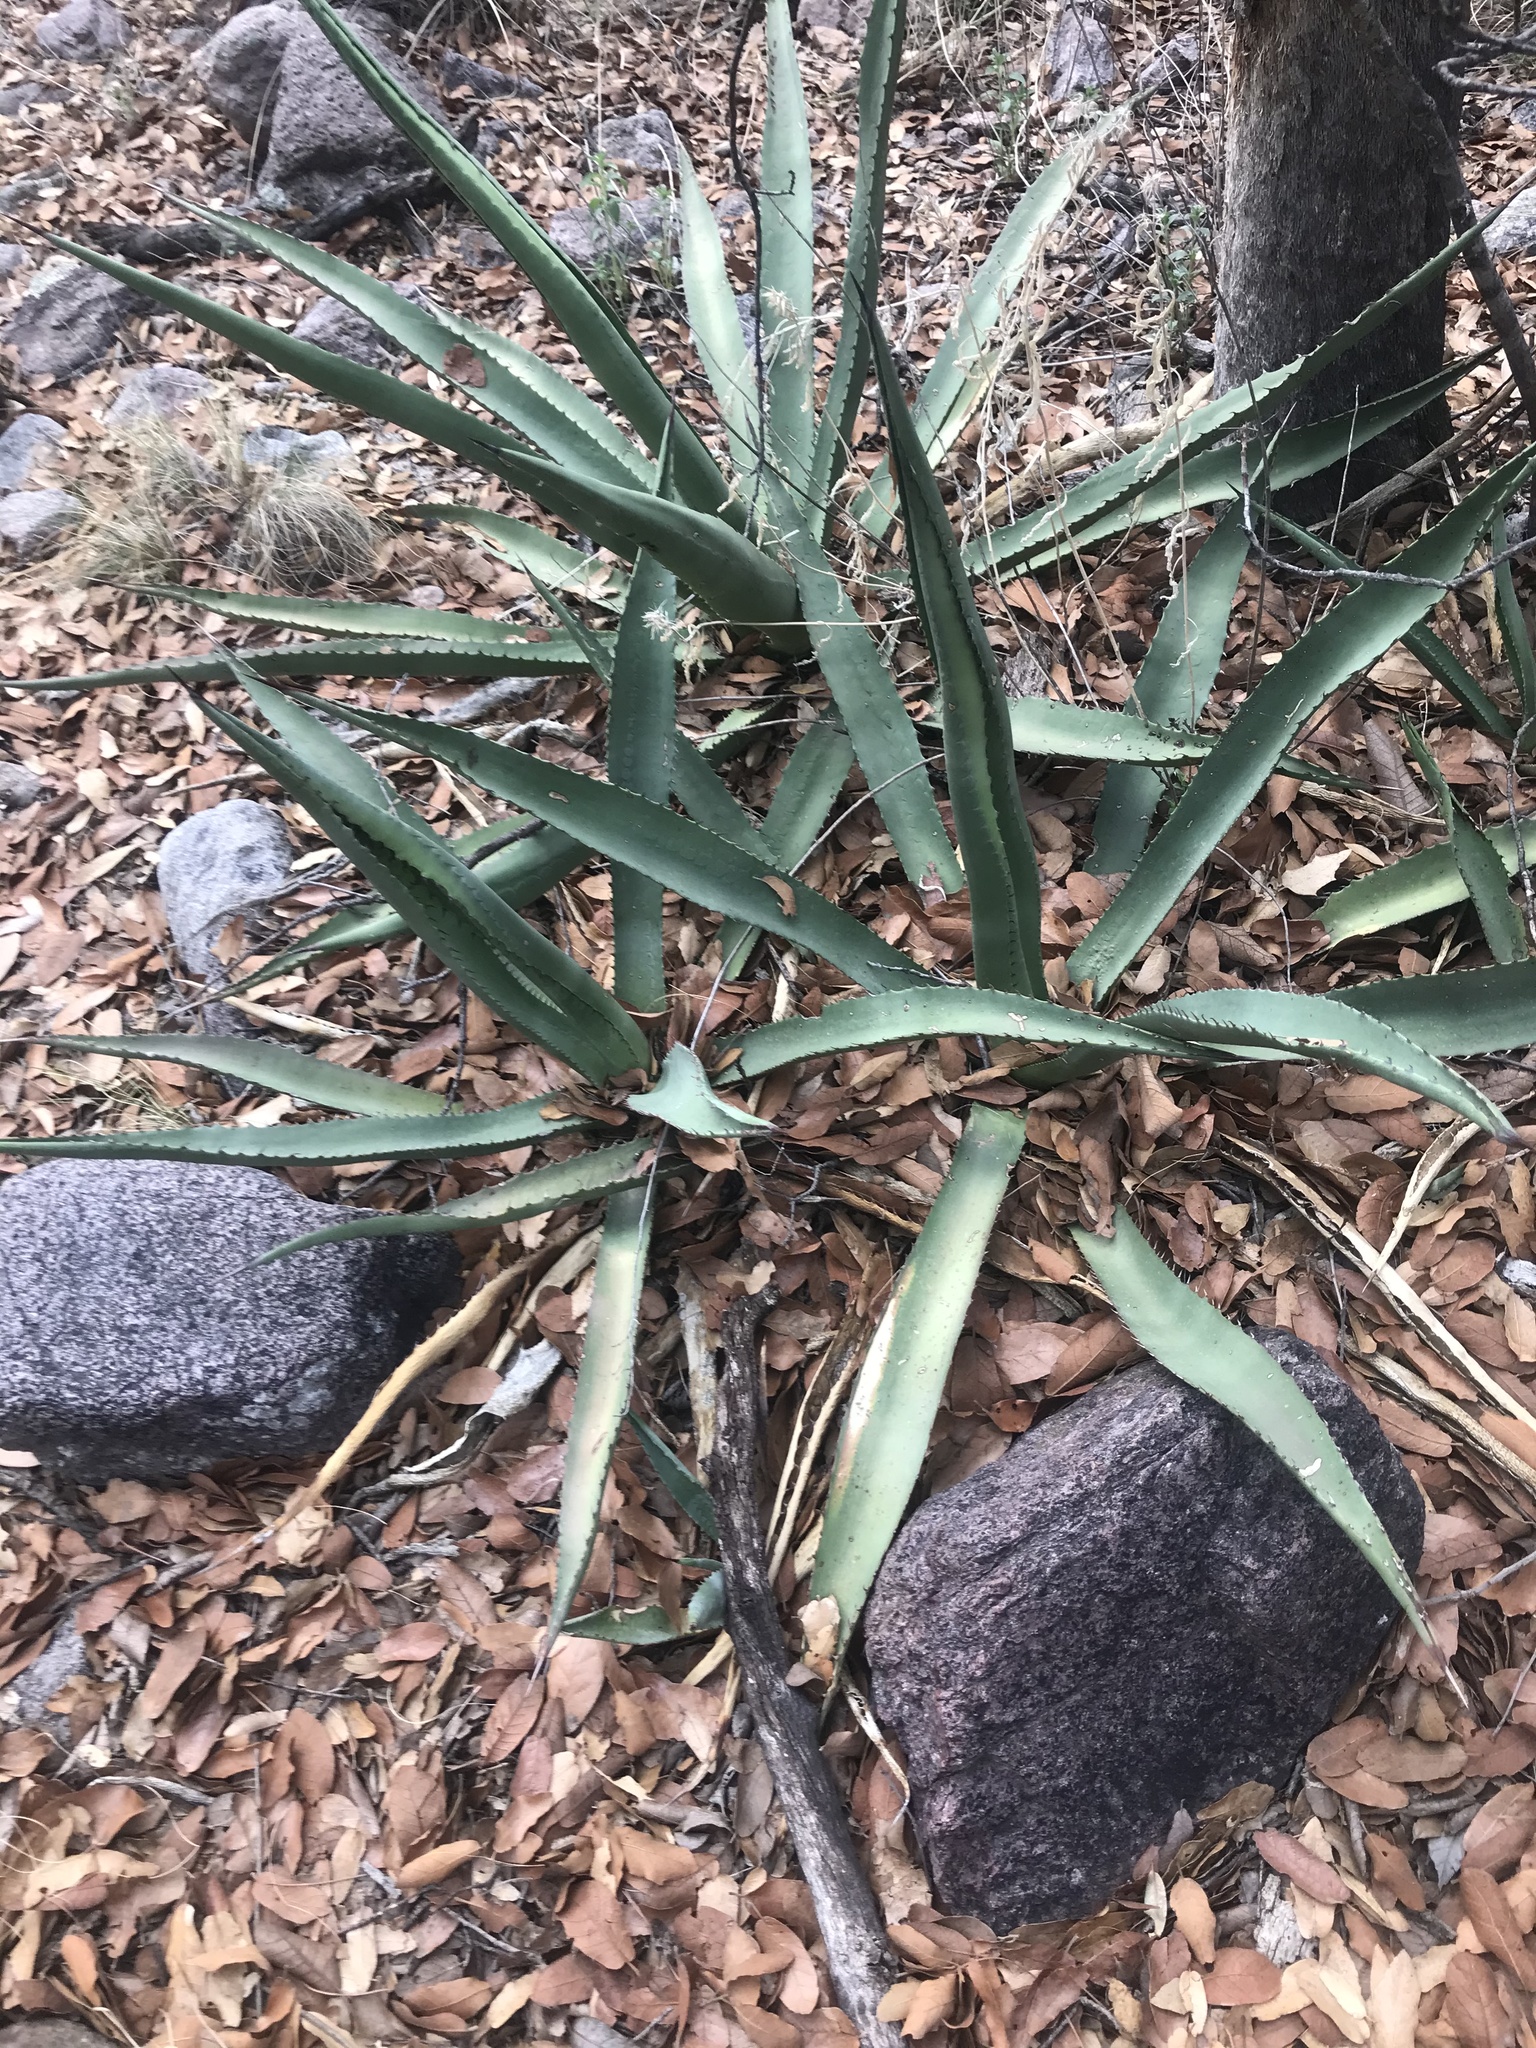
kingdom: Plantae
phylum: Tracheophyta
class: Liliopsida
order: Asparagales
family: Asparagaceae
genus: Agave
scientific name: Agave palmeri
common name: Palmer agave
